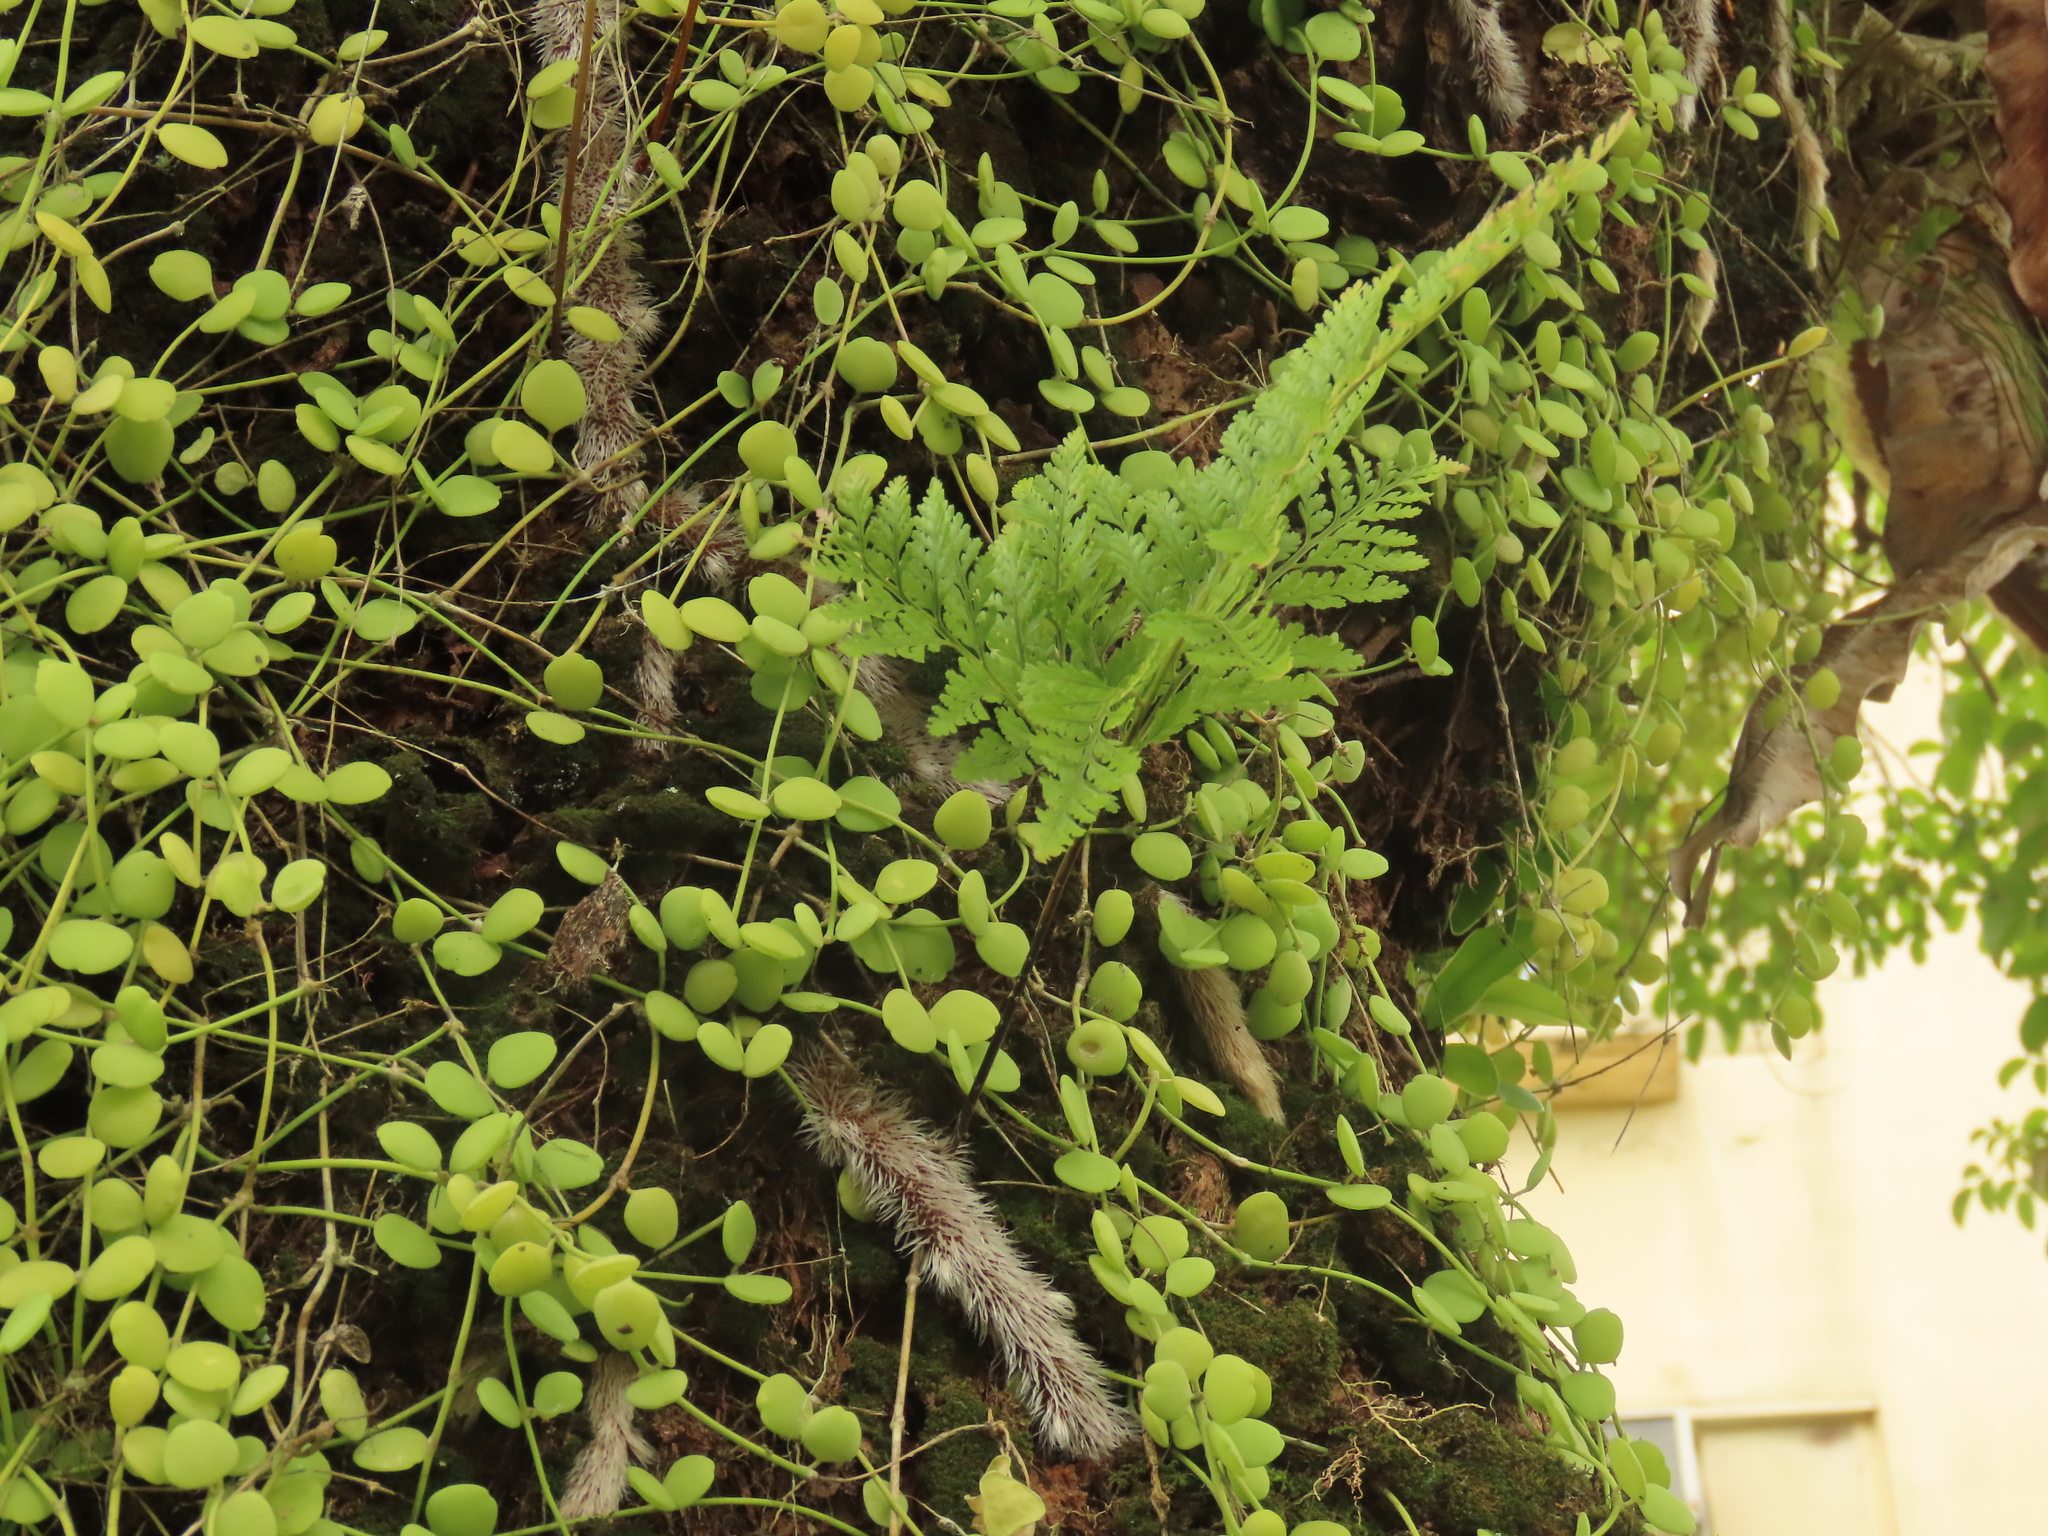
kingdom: Plantae
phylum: Tracheophyta
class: Polypodiopsida
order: Polypodiales
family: Davalliaceae
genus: Davallia
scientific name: Davallia griffithiana
